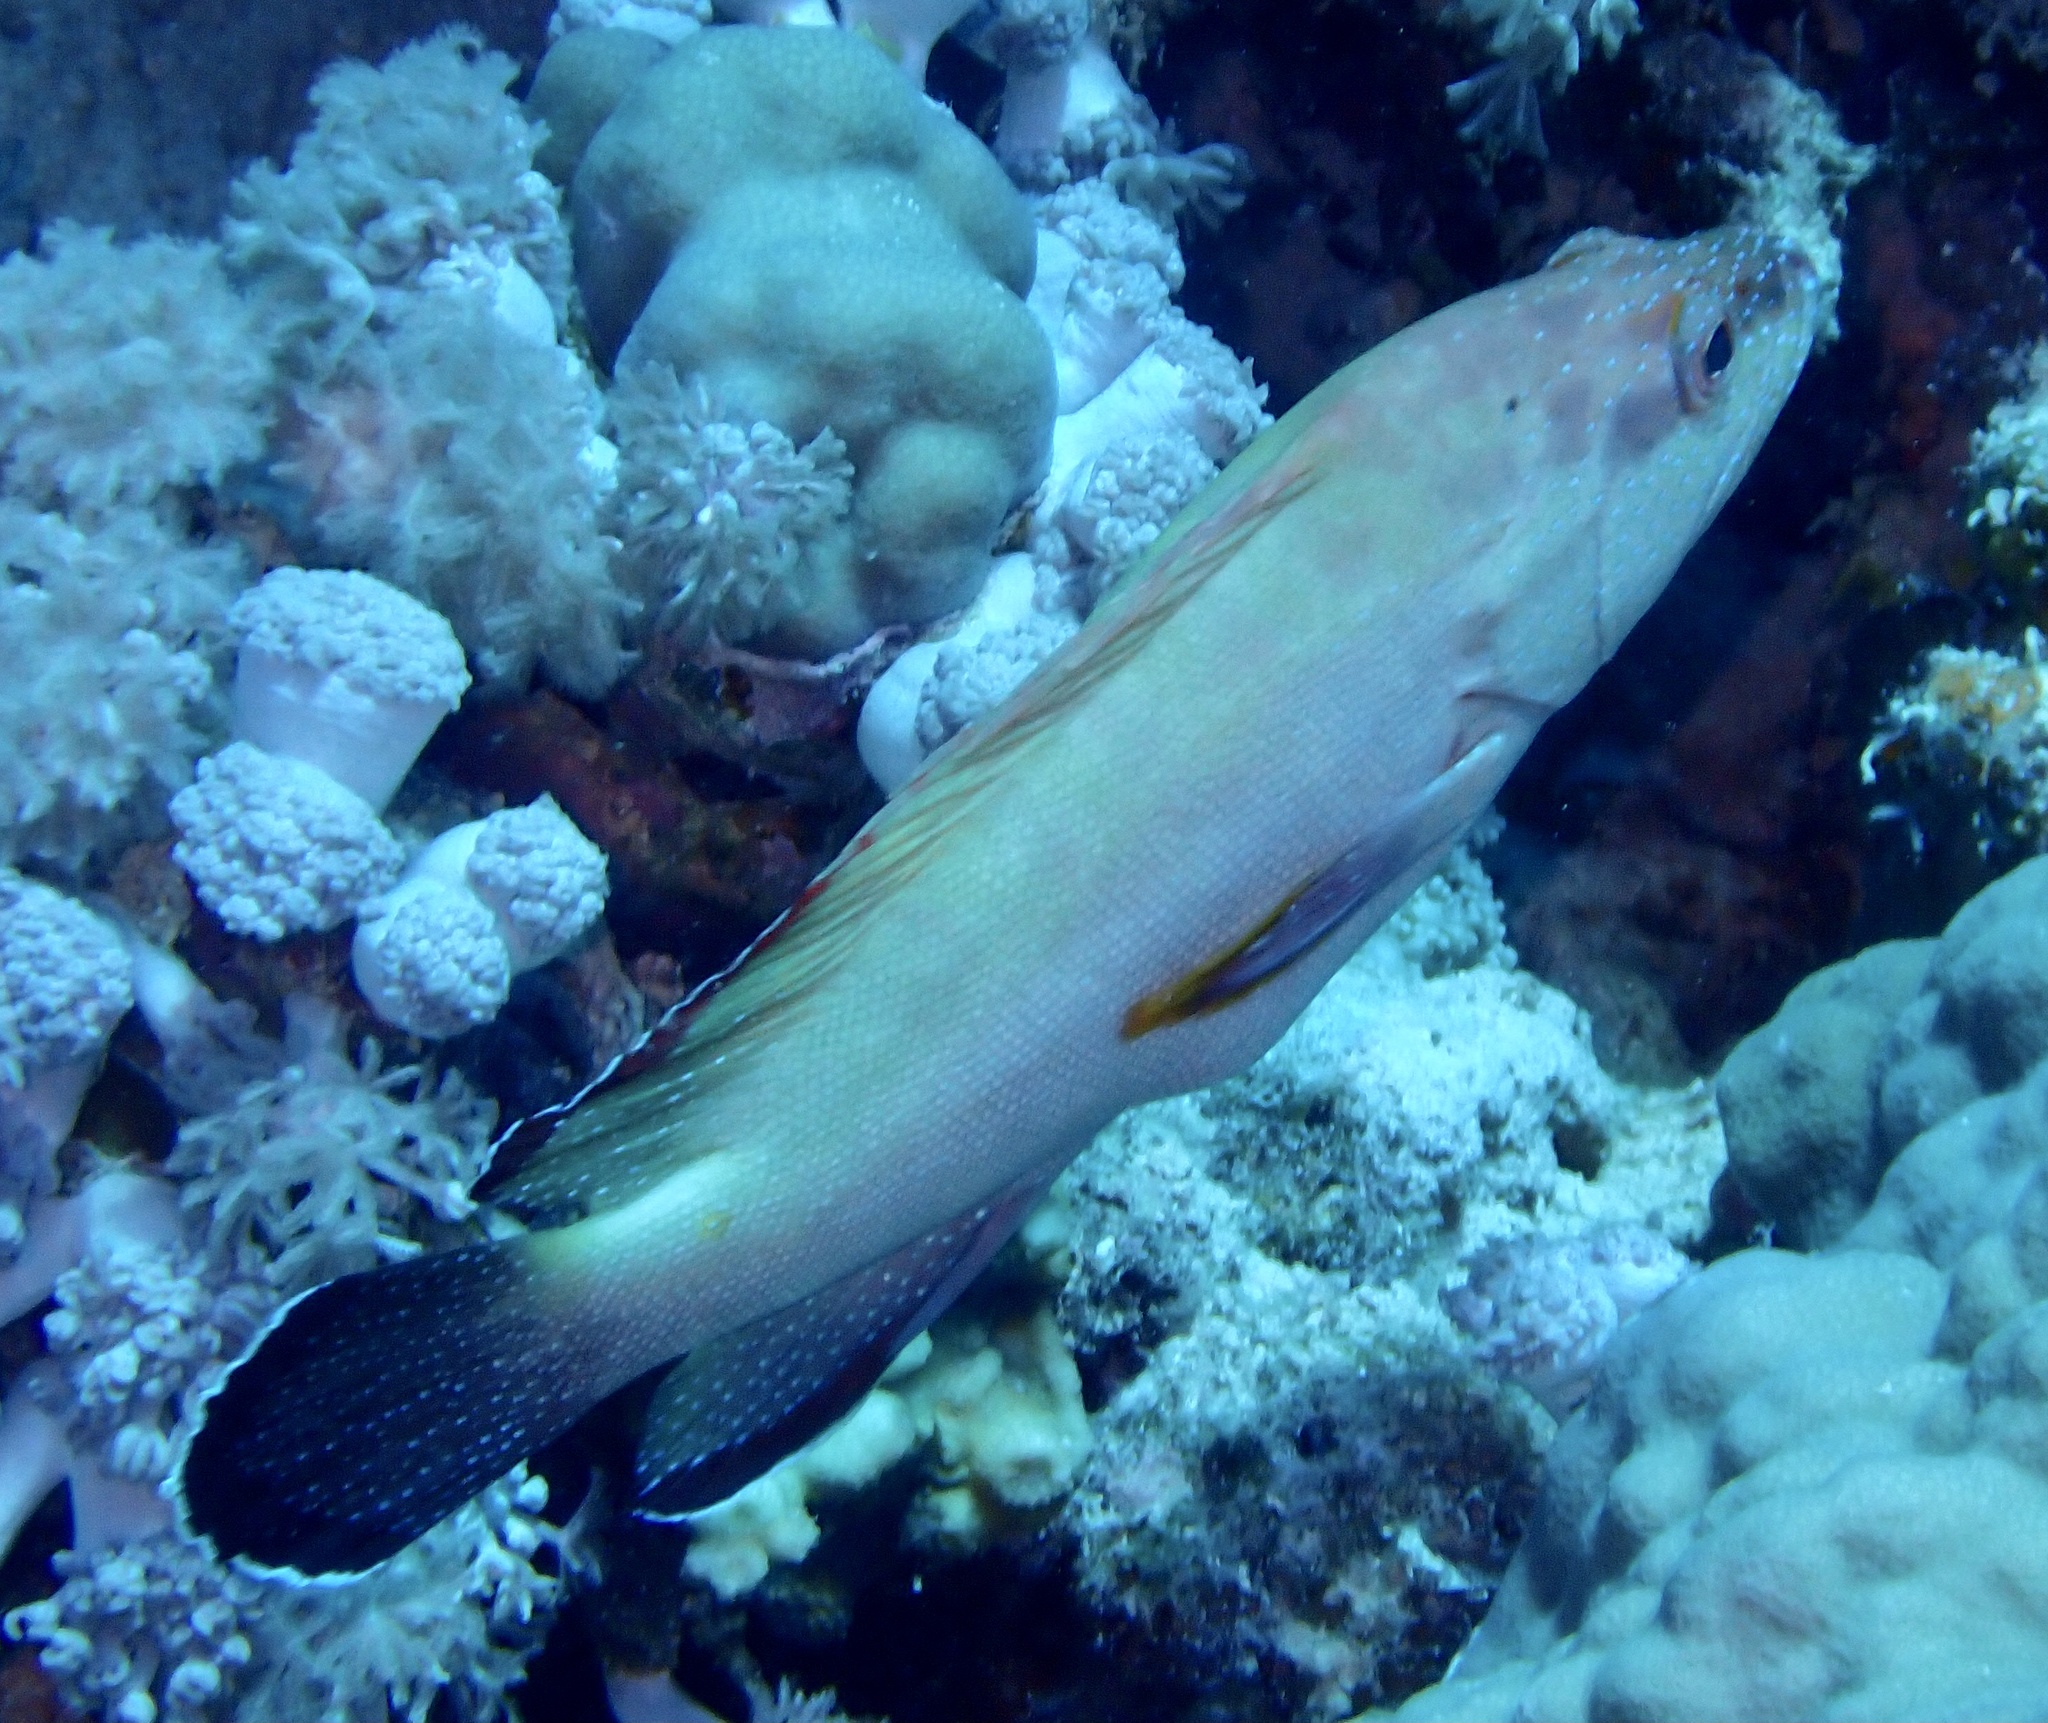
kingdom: Animalia
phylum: Chordata
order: Perciformes
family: Serranidae
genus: Cephalopholis
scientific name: Cephalopholis hemistiktos
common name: Halfspotted hind
